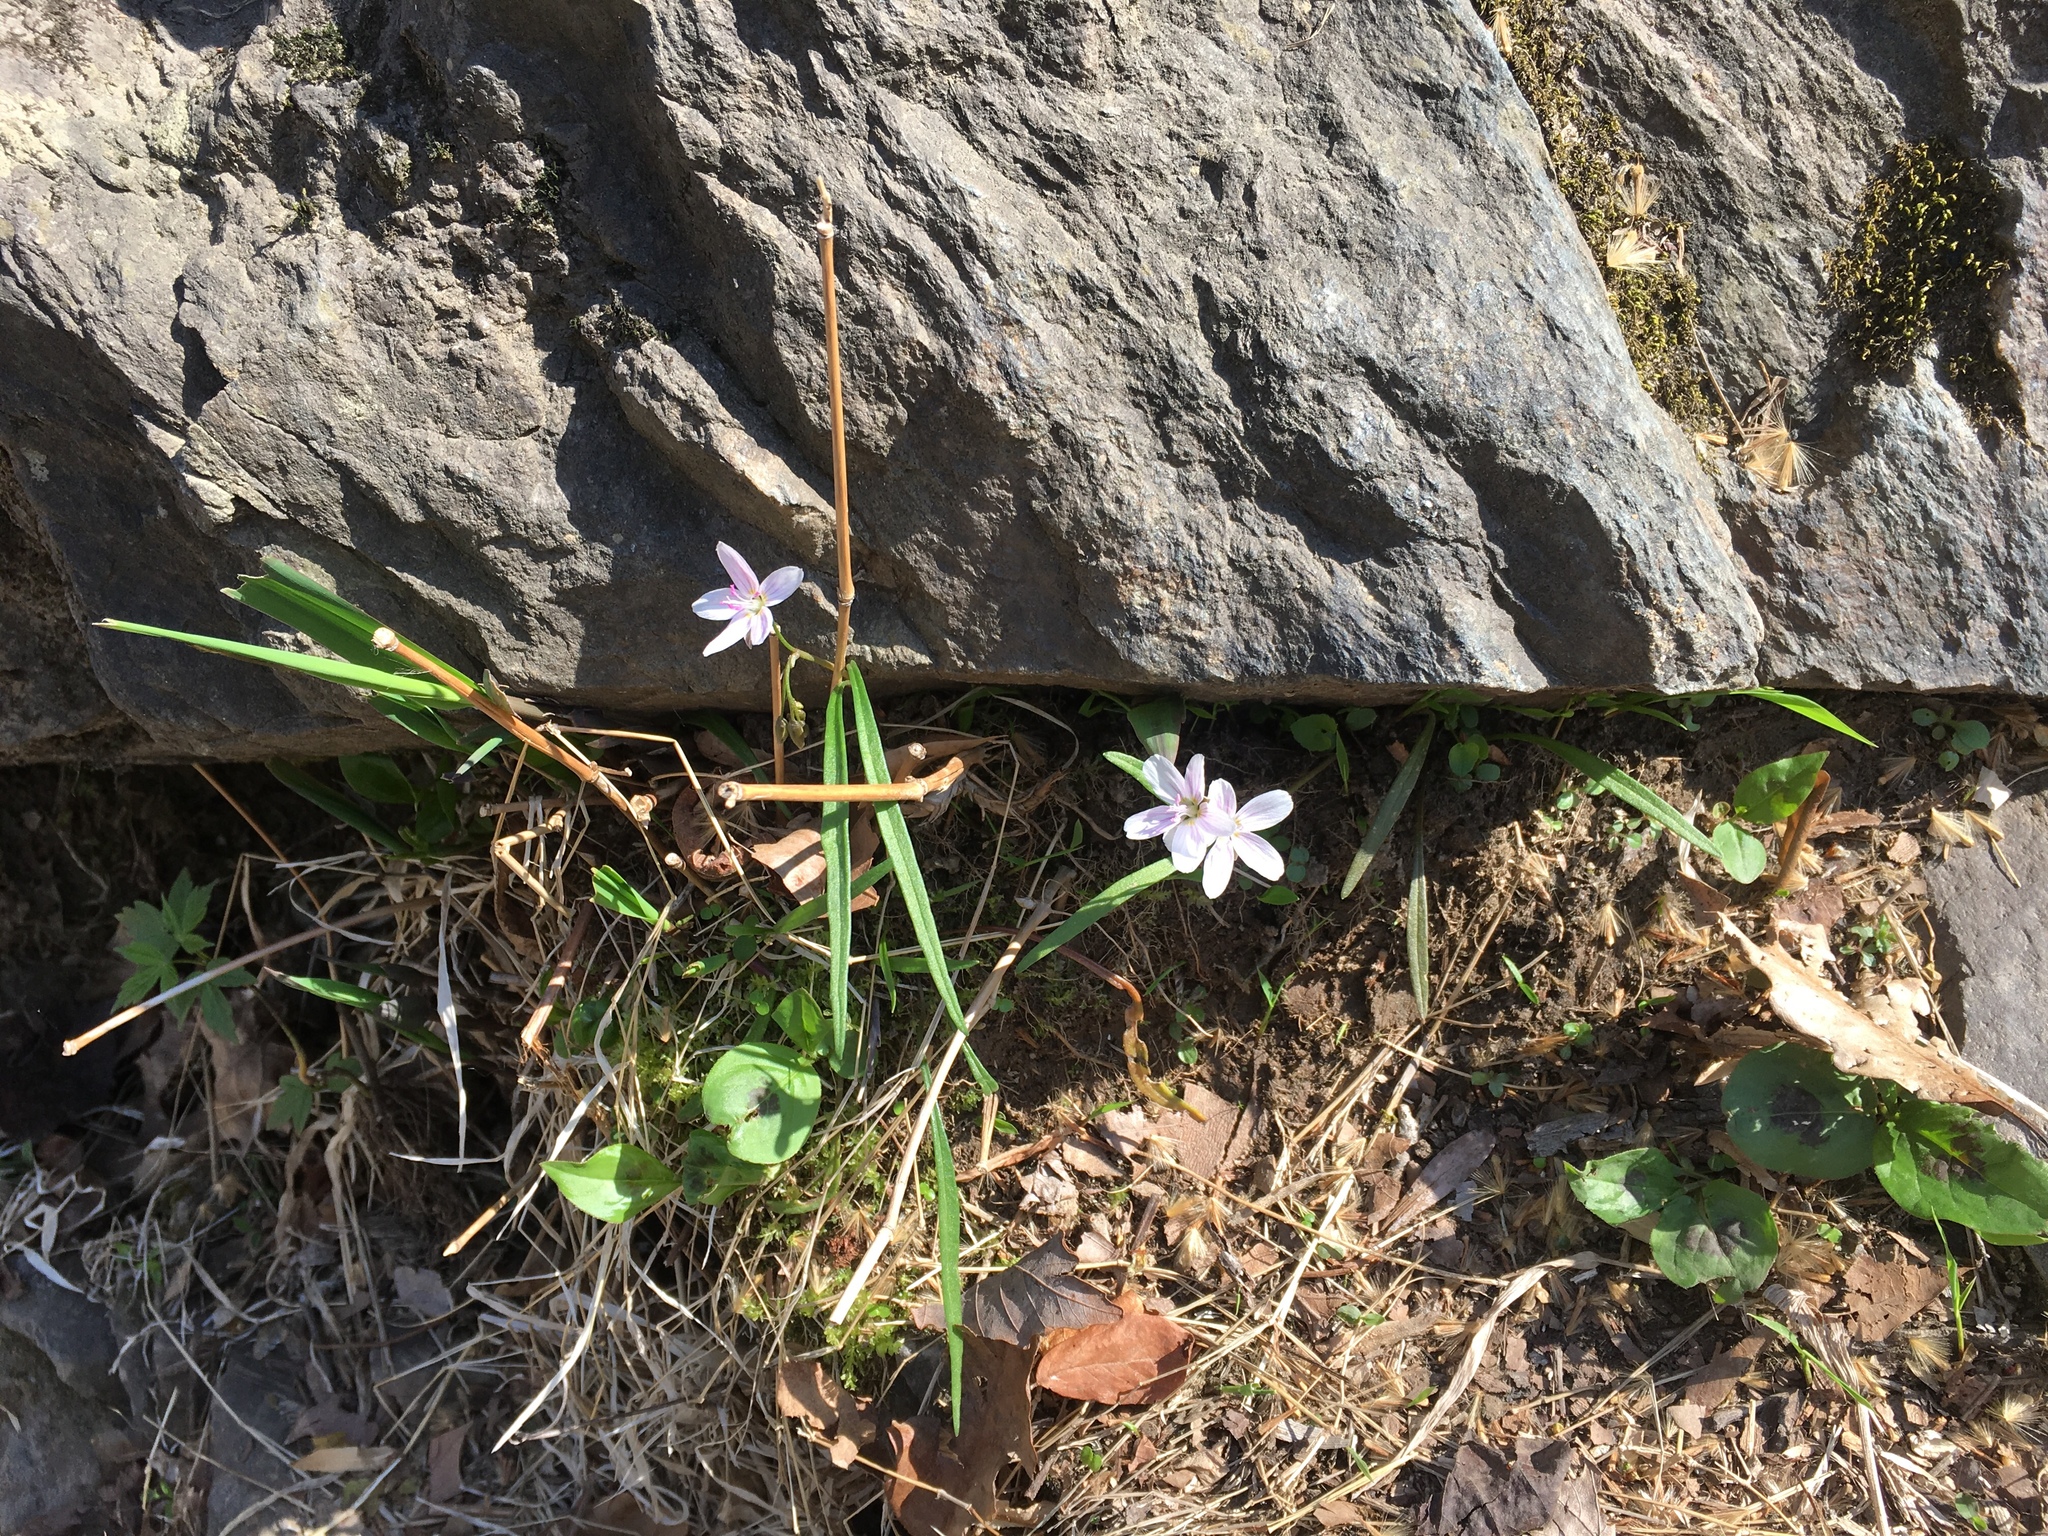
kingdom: Plantae
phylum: Tracheophyta
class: Magnoliopsida
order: Caryophyllales
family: Montiaceae
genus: Claytonia
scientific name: Claytonia virginica
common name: Virginia springbeauty
